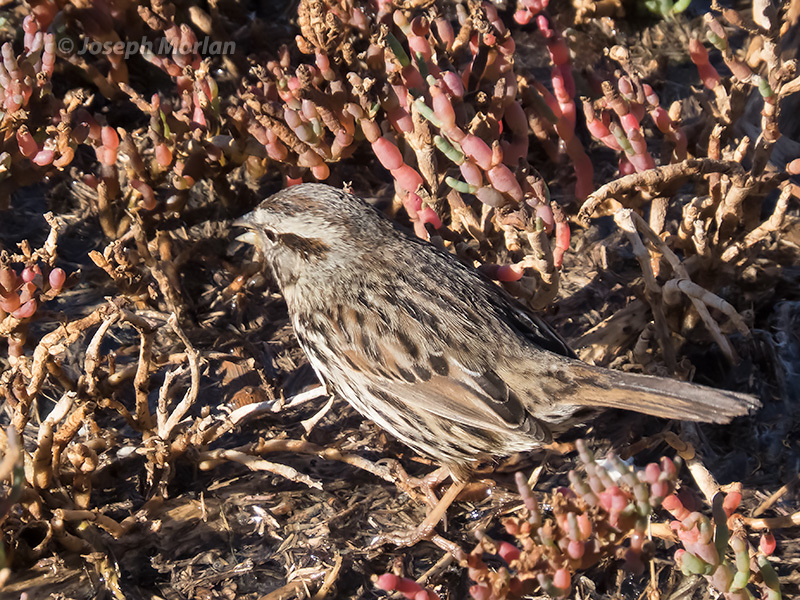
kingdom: Animalia
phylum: Chordata
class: Aves
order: Passeriformes
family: Passerellidae
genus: Melospiza
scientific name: Melospiza melodia
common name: Song sparrow
